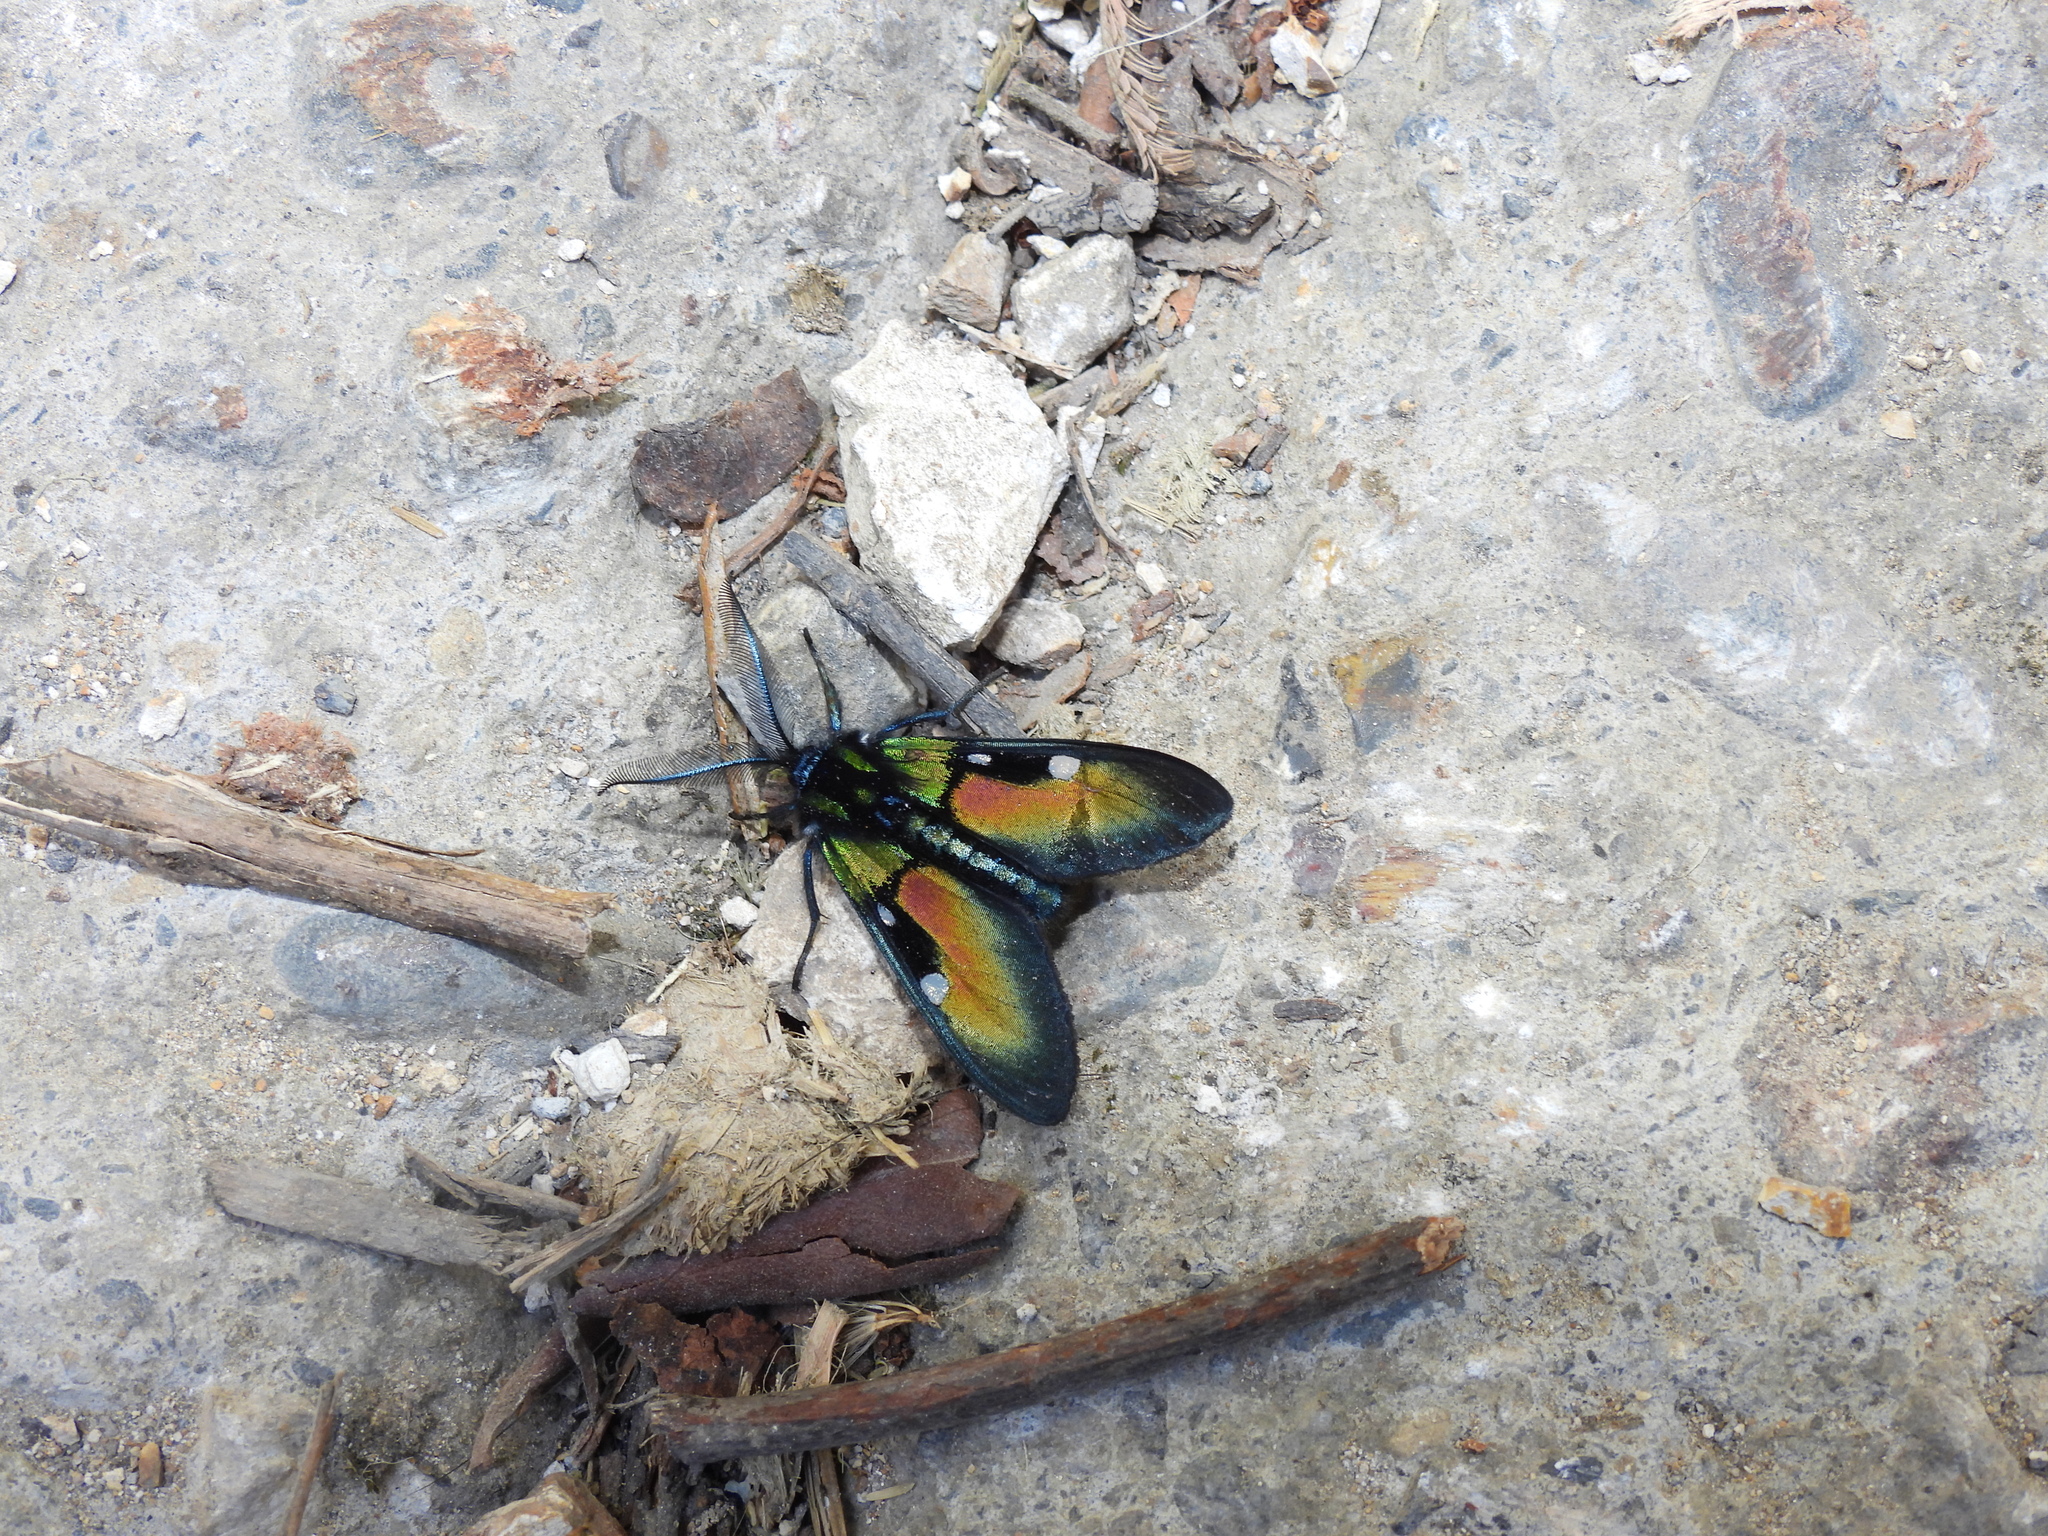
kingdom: Animalia
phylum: Arthropoda
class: Insecta
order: Lepidoptera
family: Erebidae
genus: Chrysocale
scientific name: Chrysocale ignita
